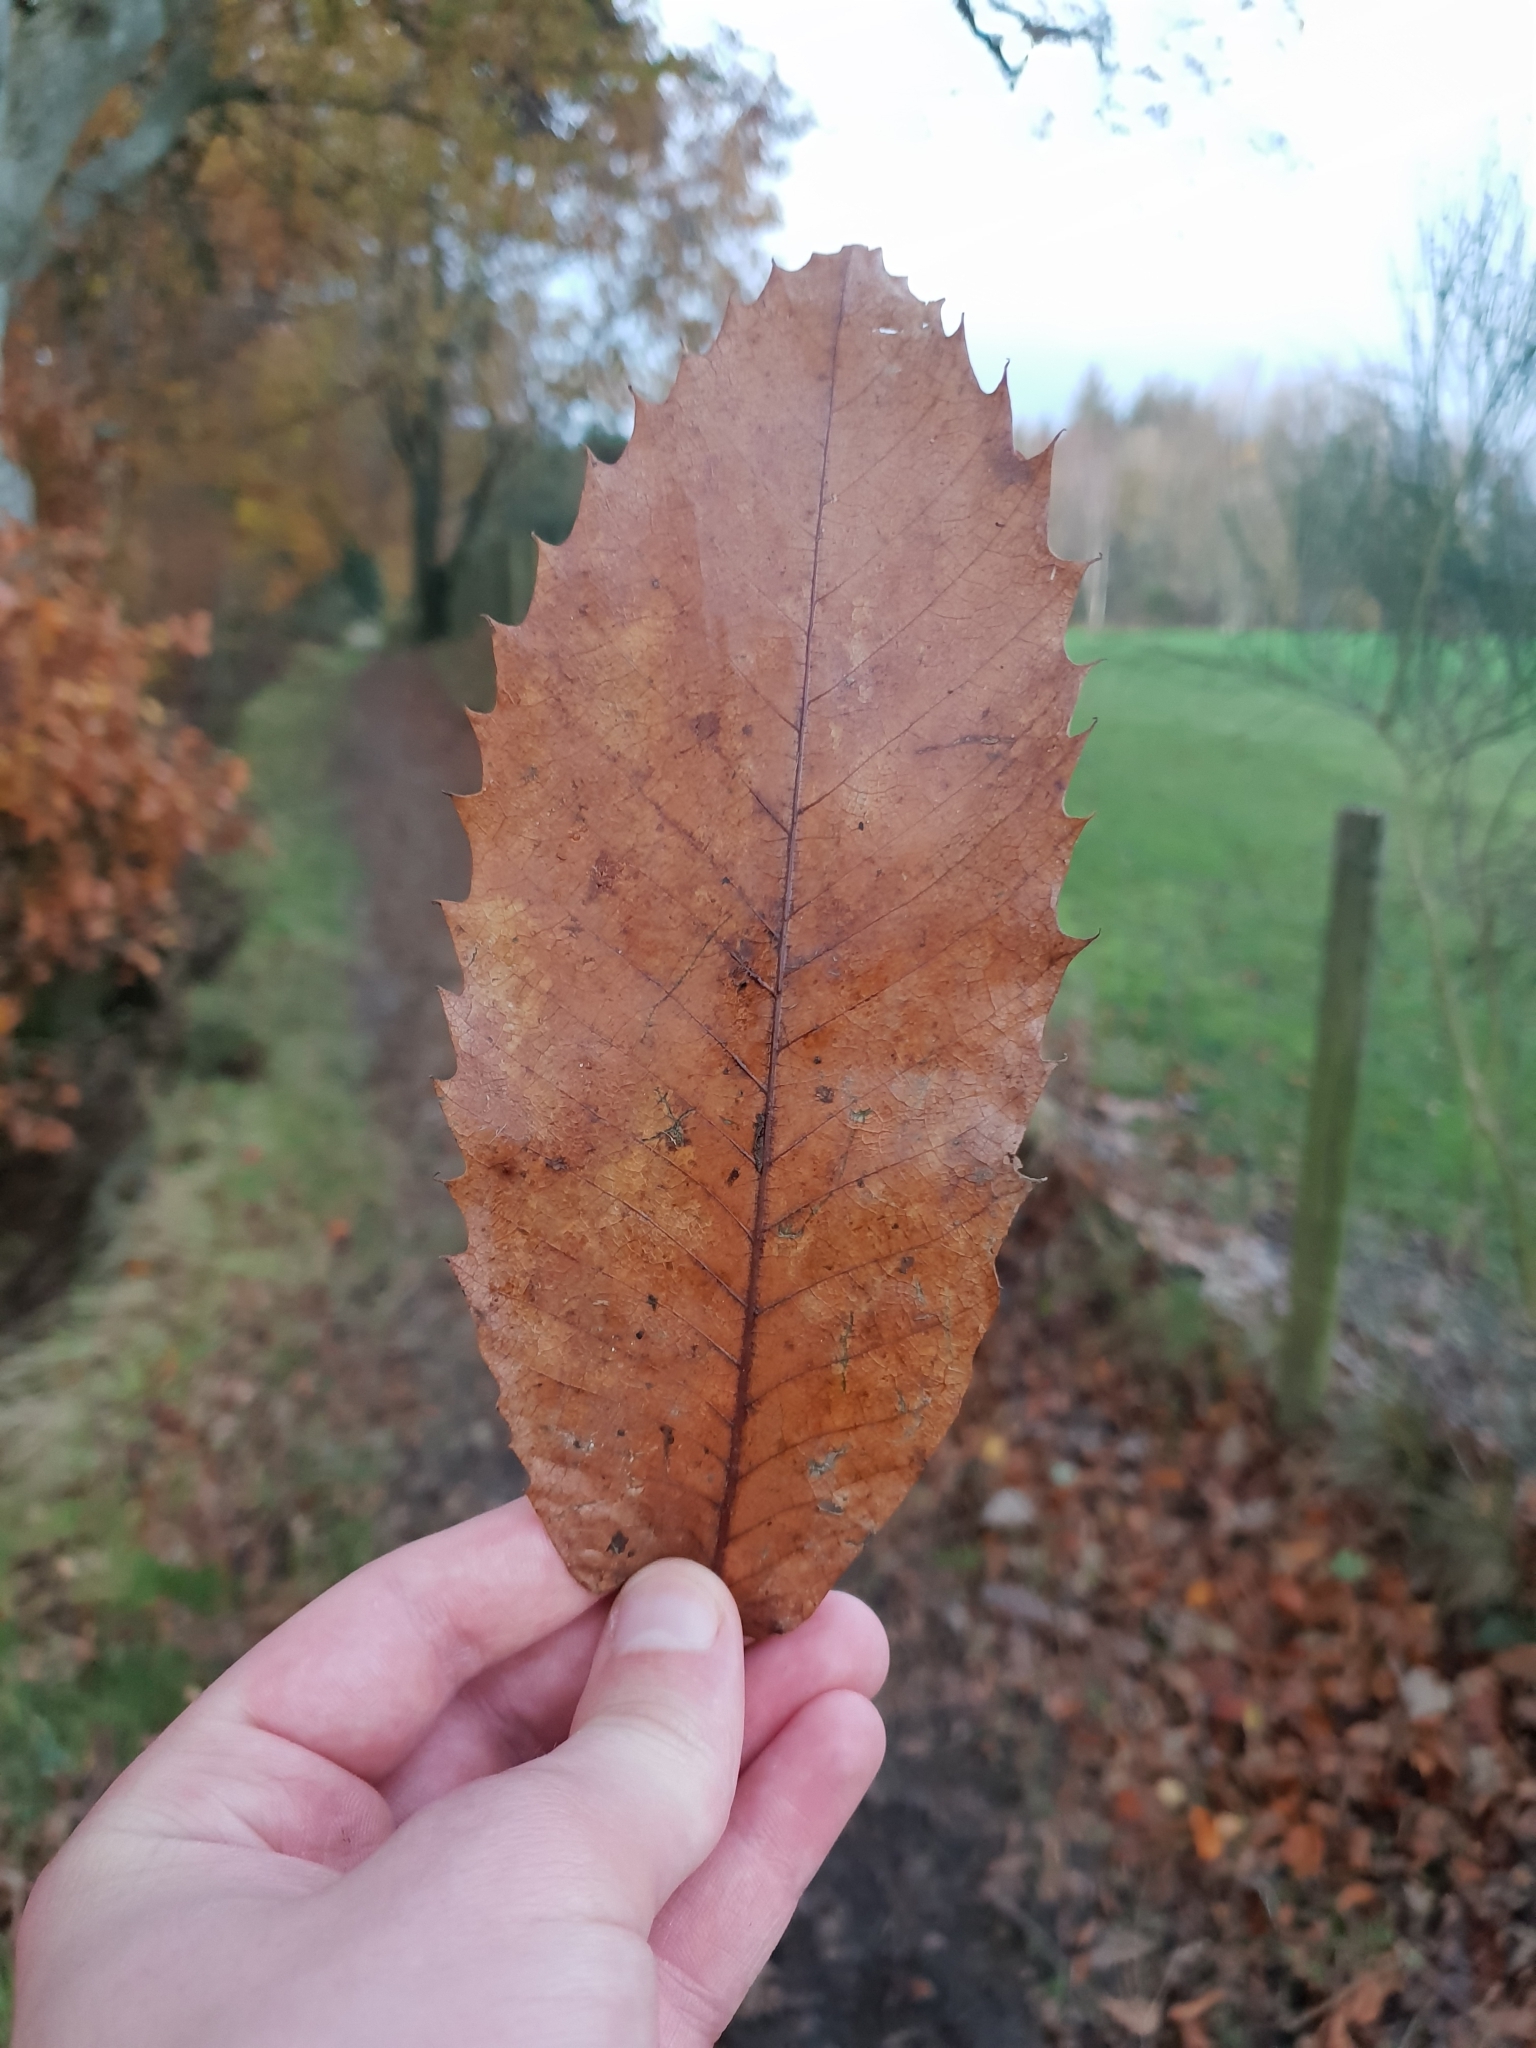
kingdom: Plantae
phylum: Tracheophyta
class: Magnoliopsida
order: Fagales
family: Fagaceae
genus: Castanea
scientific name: Castanea sativa
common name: Sweet chestnut
